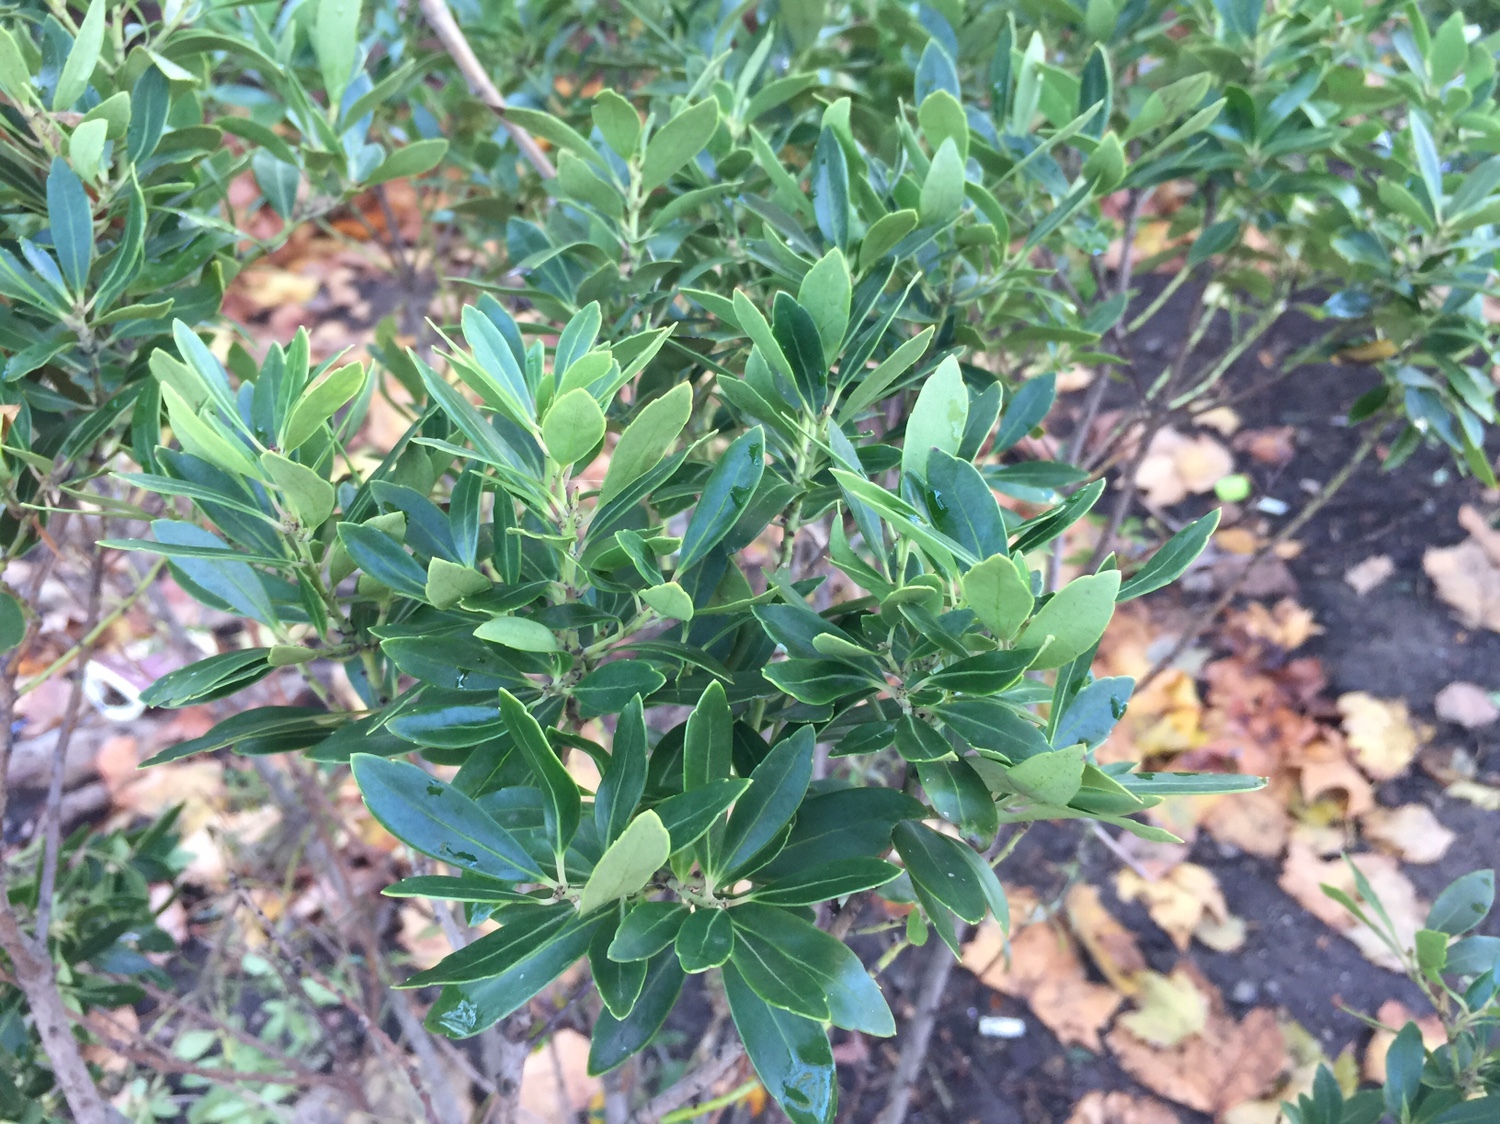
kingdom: Plantae
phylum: Tracheophyta
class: Magnoliopsida
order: Aquifoliales
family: Aquifoliaceae
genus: Ilex
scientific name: Ilex glabra
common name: Bitter gallberry
